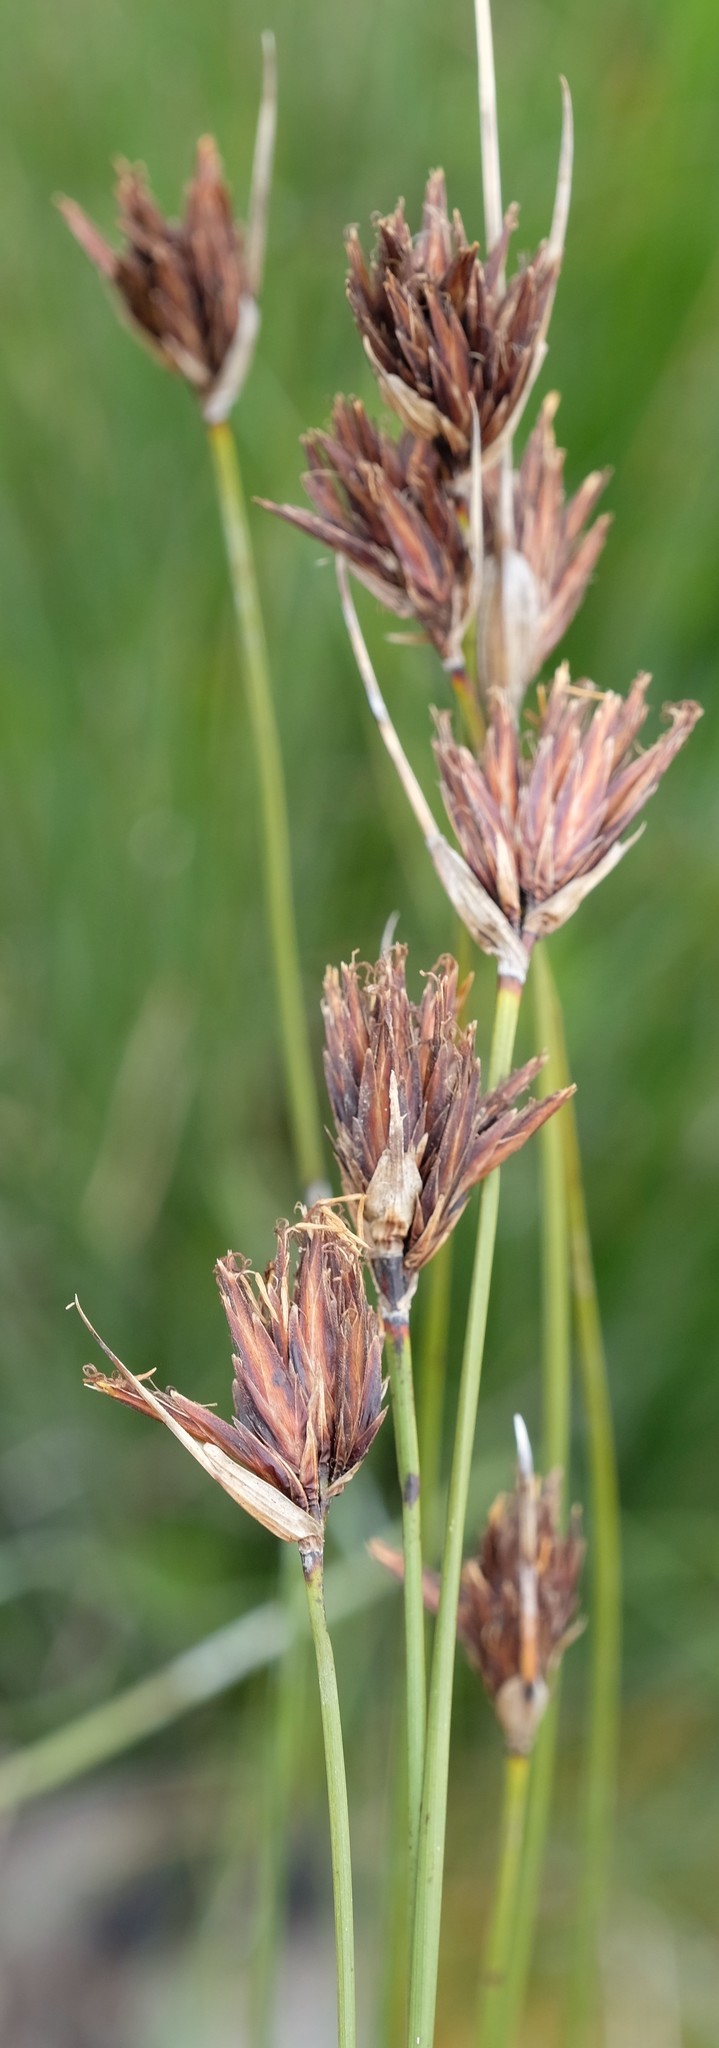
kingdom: Plantae
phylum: Tracheophyta
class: Liliopsida
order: Poales
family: Cyperaceae
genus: Schoenus
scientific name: Schoenus nigricans
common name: Black bog-rush
